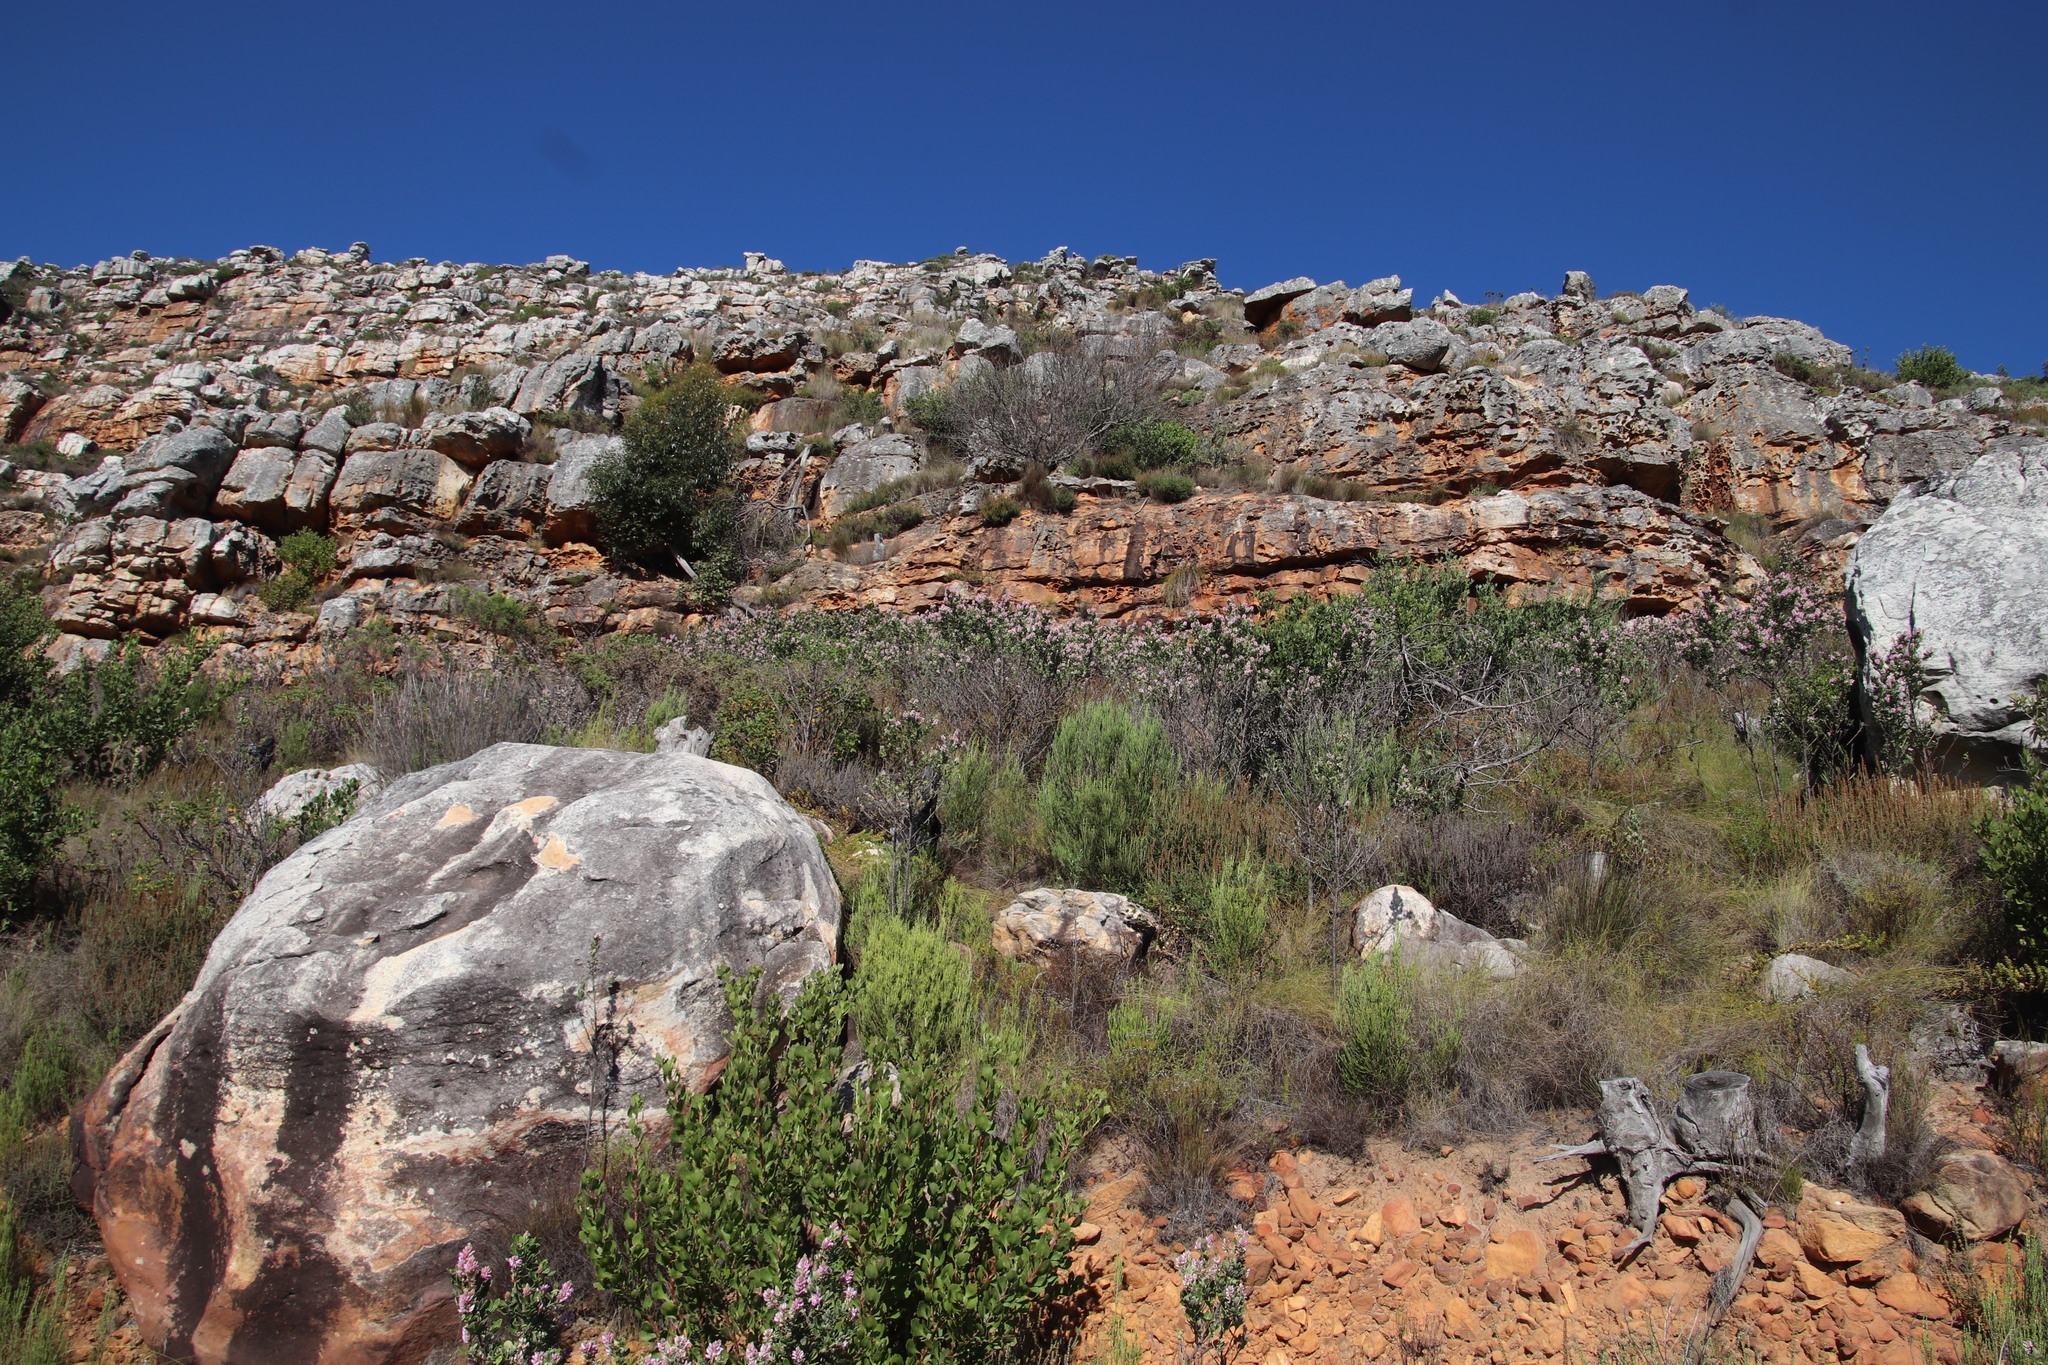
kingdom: Plantae
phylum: Tracheophyta
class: Magnoliopsida
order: Fabales
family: Fabaceae
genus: Indigofera
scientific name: Indigofera cytisoides
